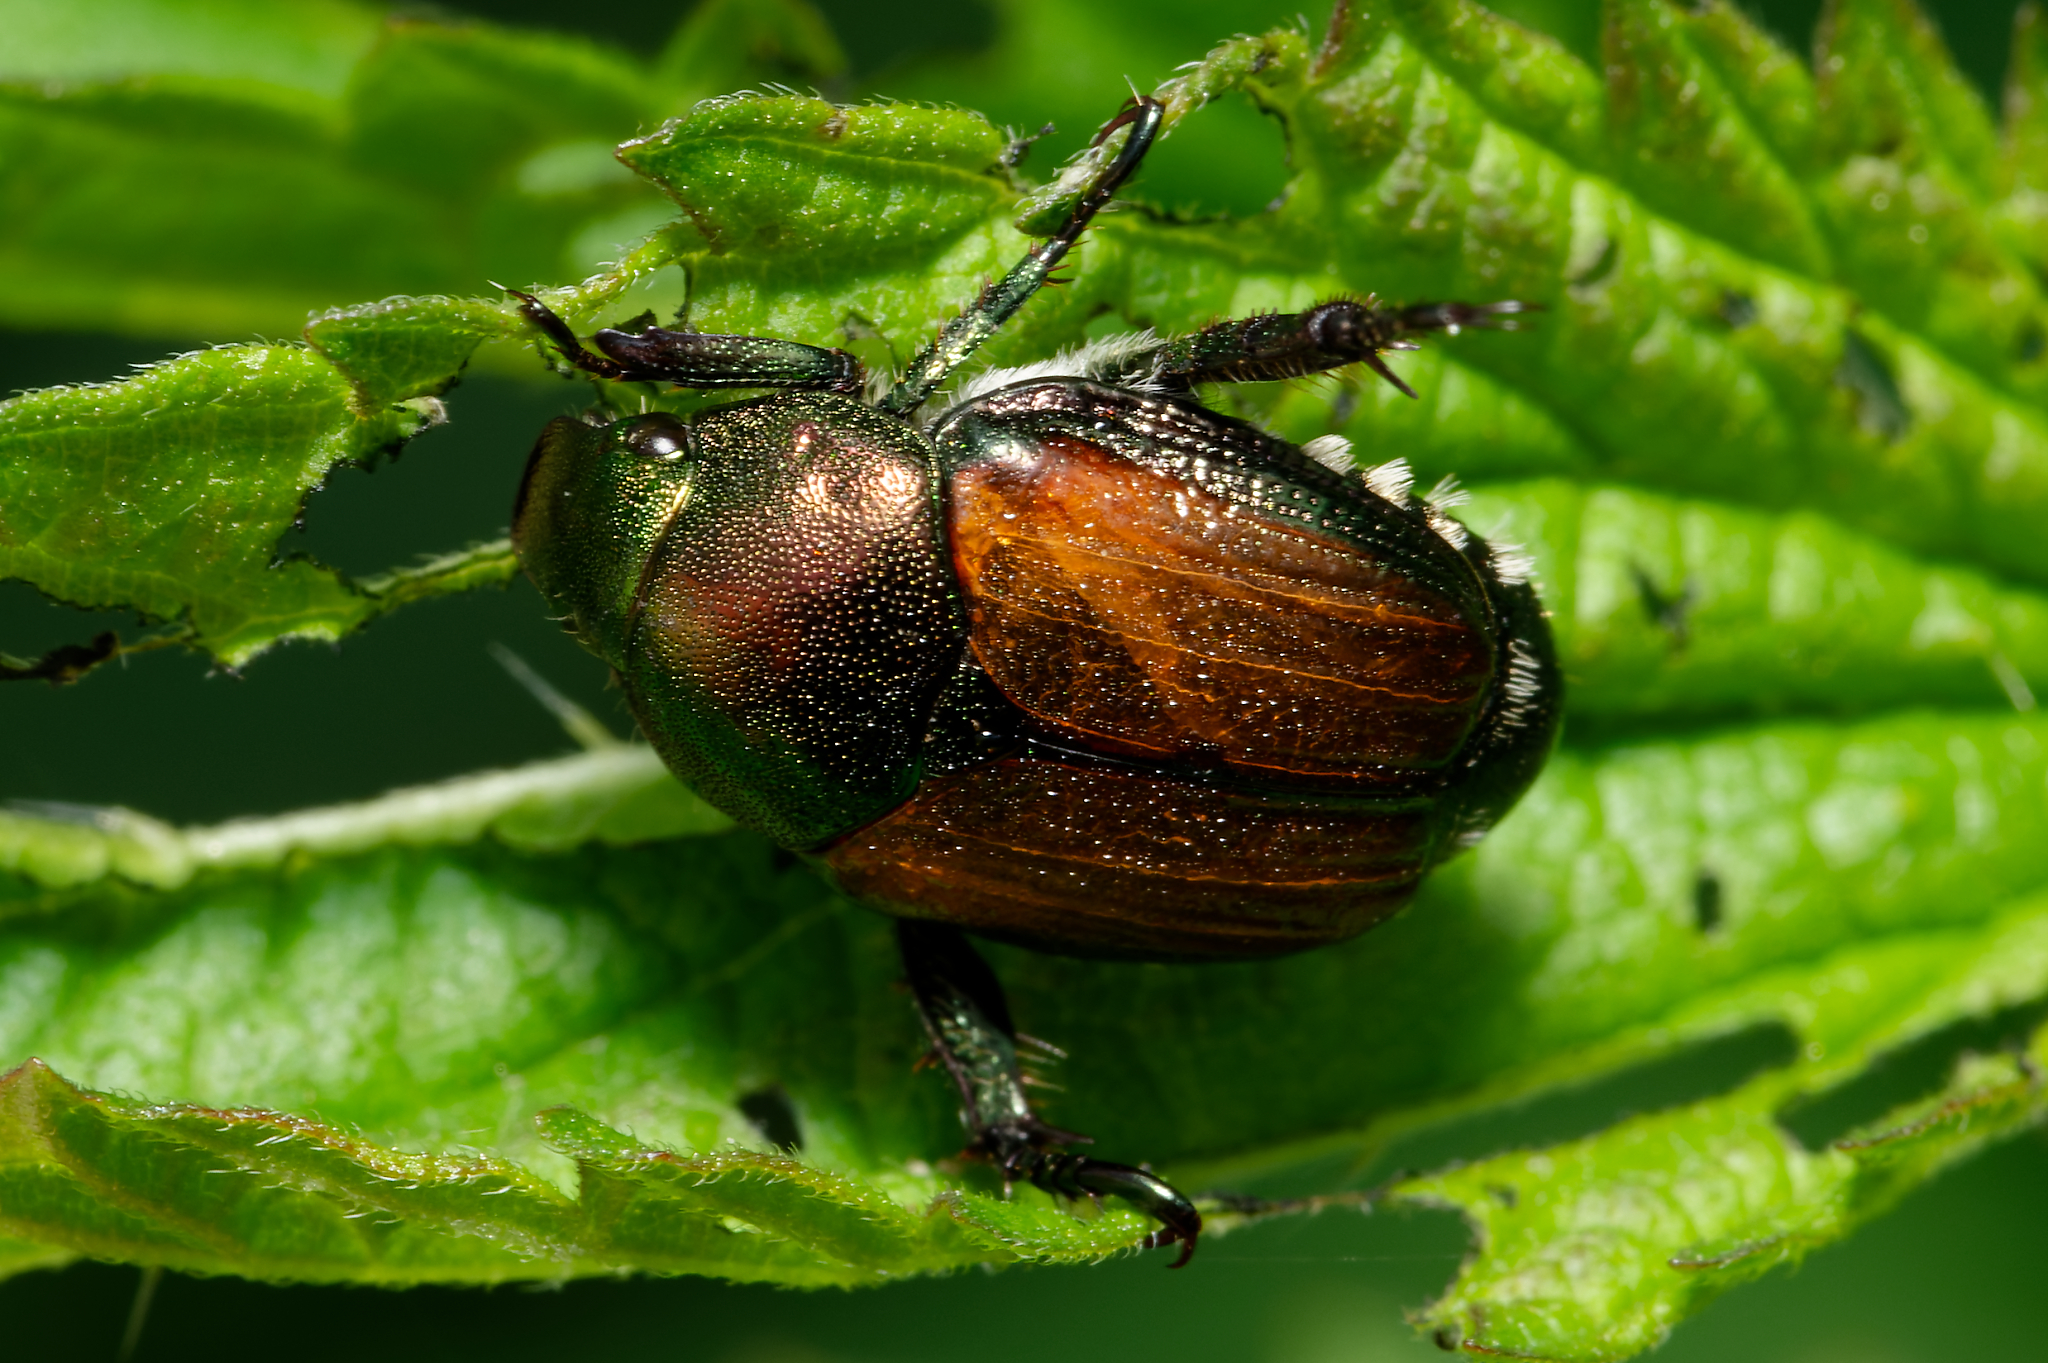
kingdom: Animalia
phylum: Arthropoda
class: Insecta
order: Coleoptera
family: Scarabaeidae
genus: Popillia
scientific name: Popillia japonica
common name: Japanese beetle
